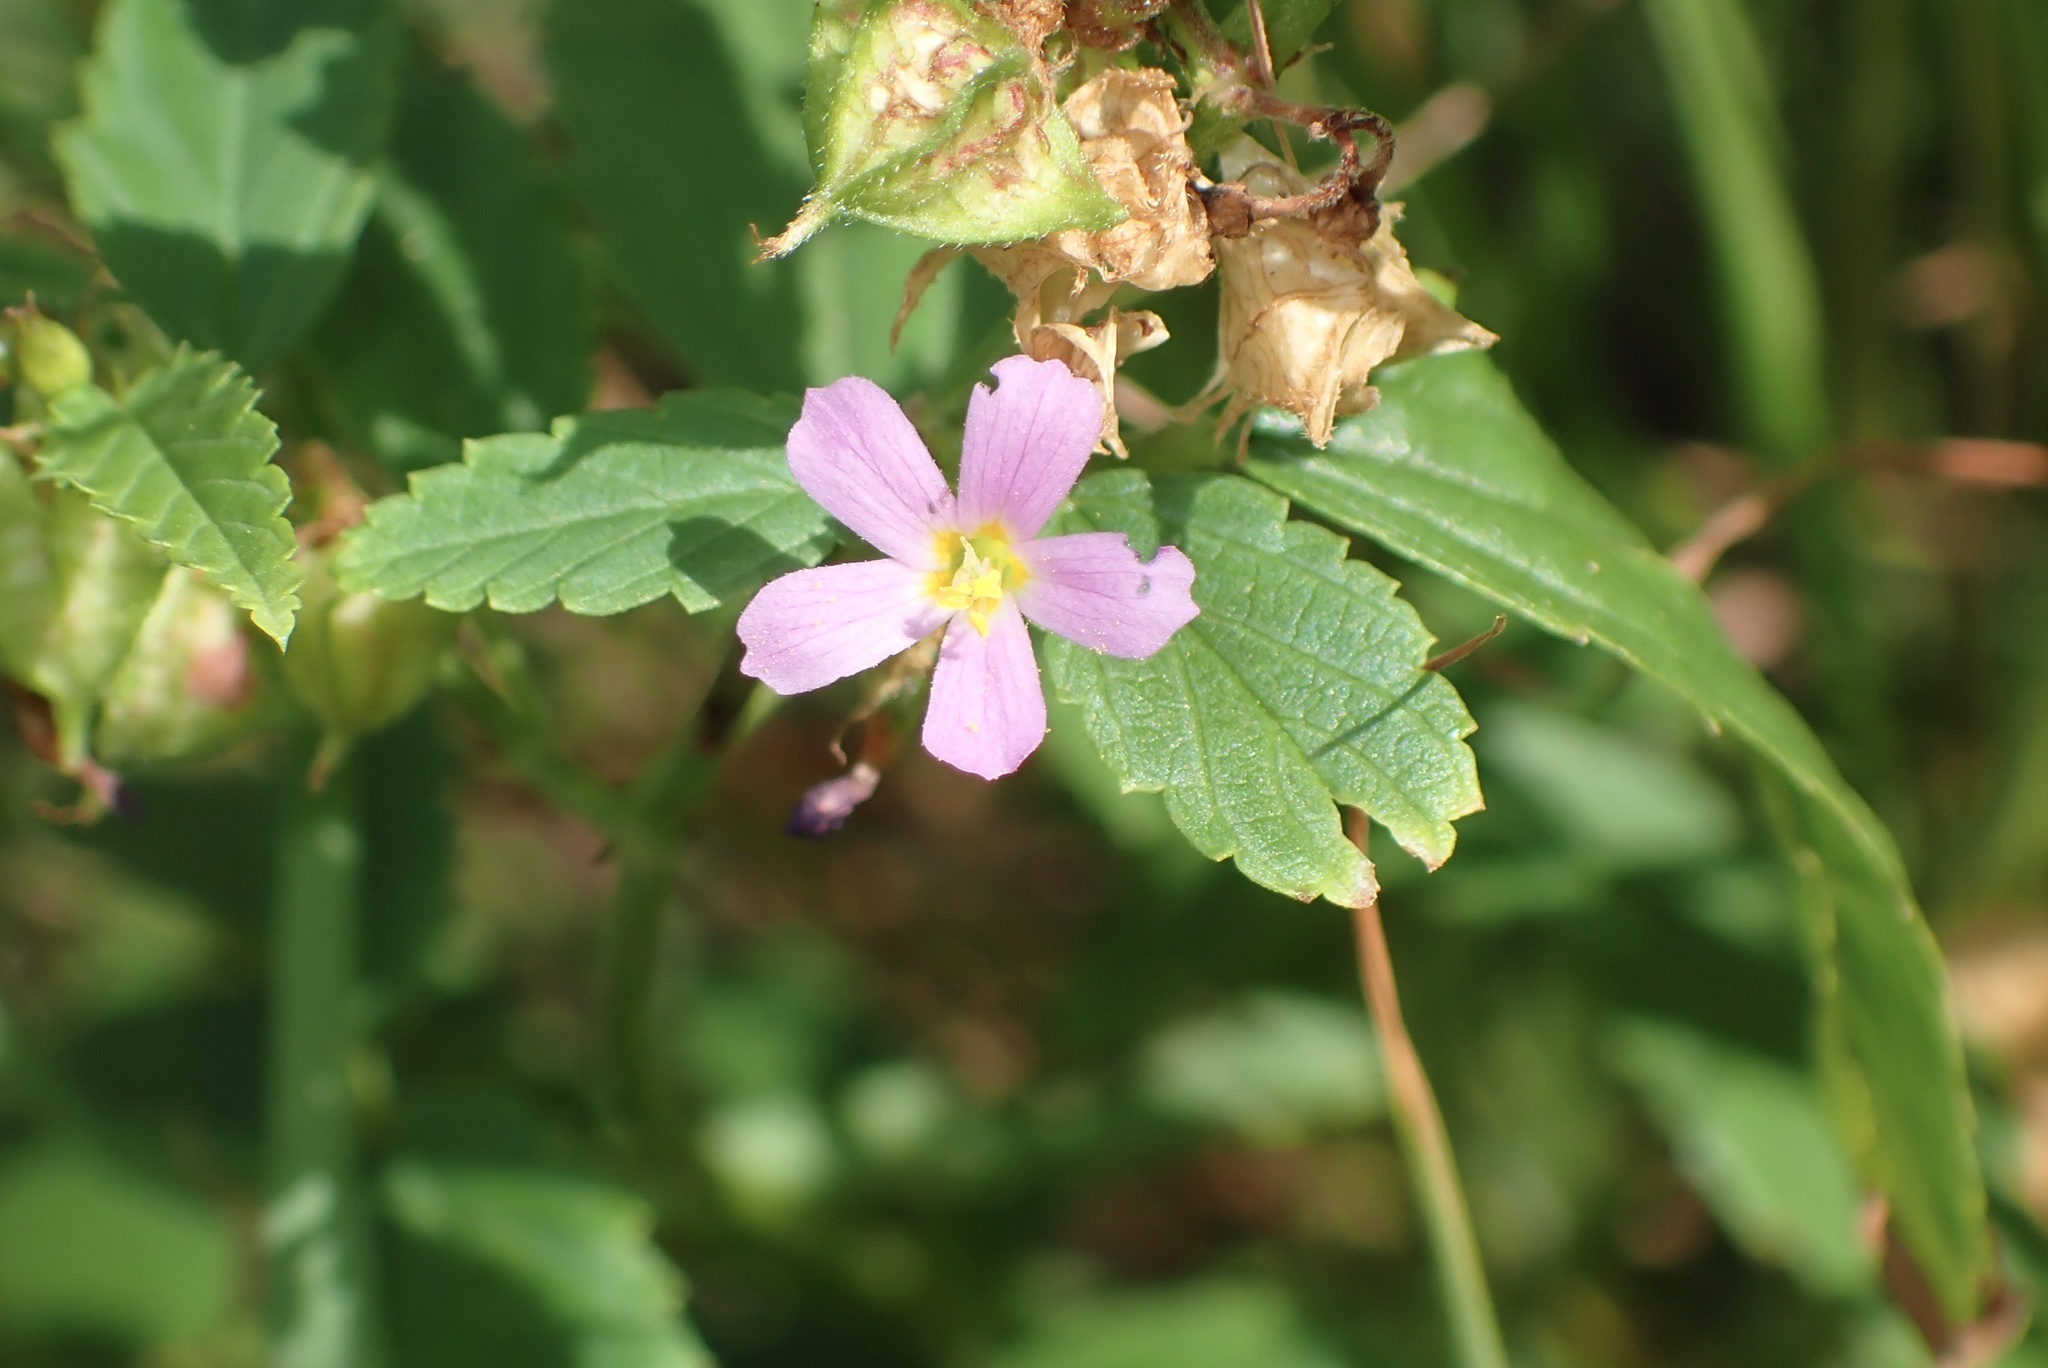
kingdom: Plantae
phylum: Tracheophyta
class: Magnoliopsida
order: Malvales
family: Malvaceae
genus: Melochia
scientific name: Melochia pyramidata
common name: Pyramidflower
